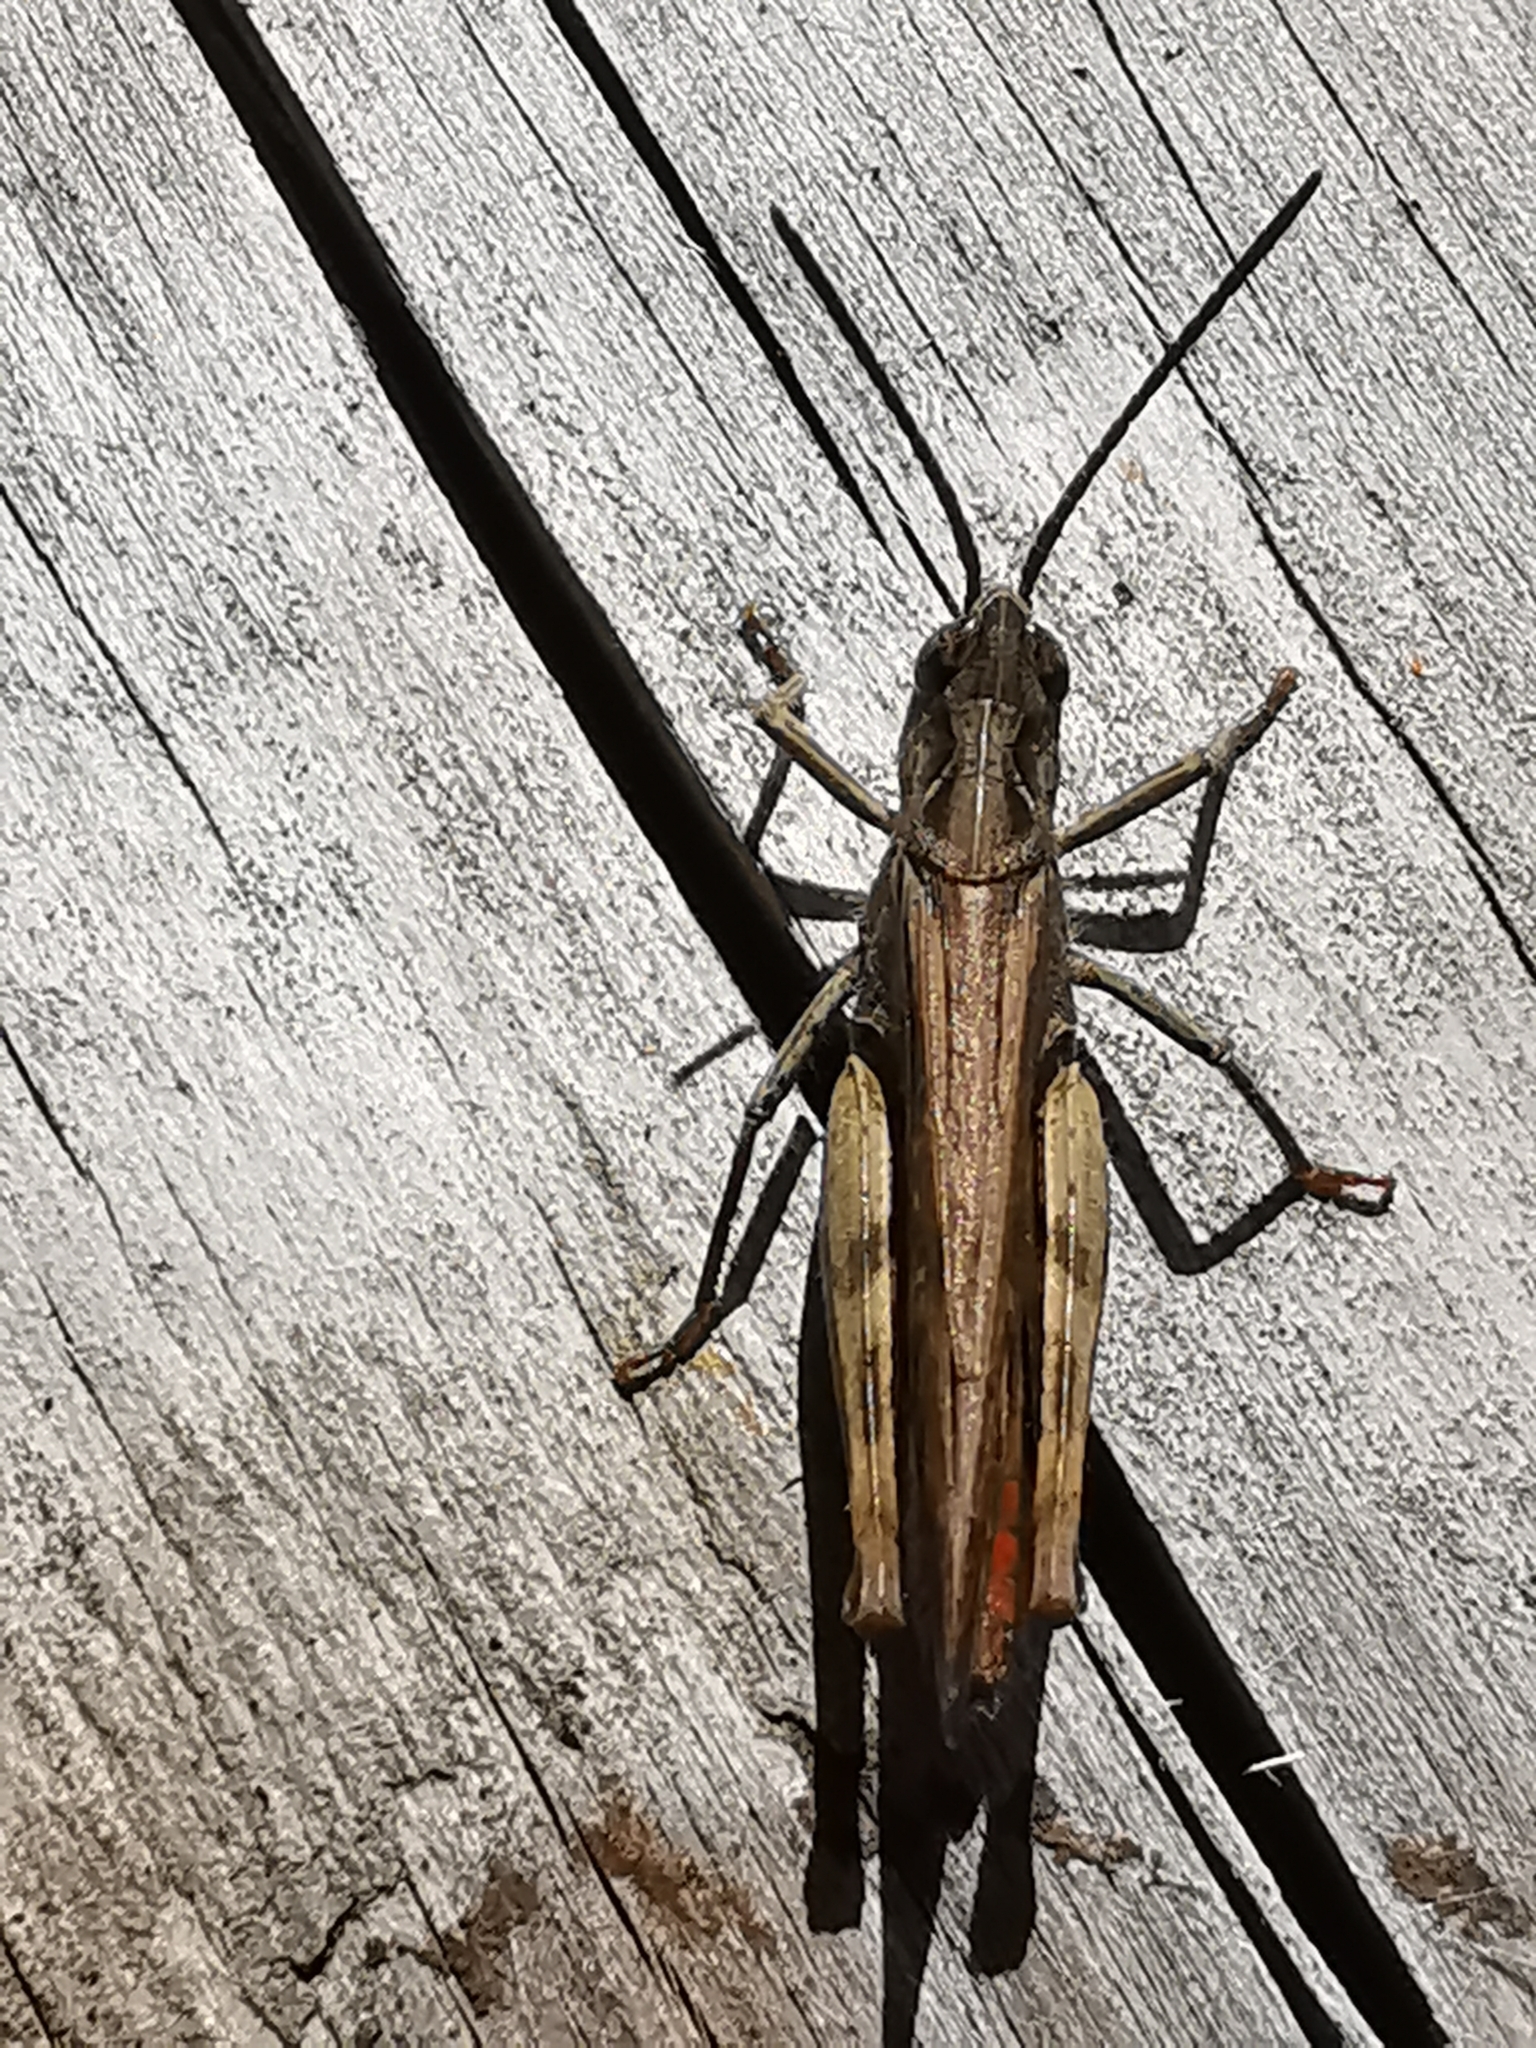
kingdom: Animalia
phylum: Arthropoda
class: Insecta
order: Orthoptera
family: Acrididae
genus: Chorthippus
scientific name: Chorthippus brunneus
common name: Field grasshopper
